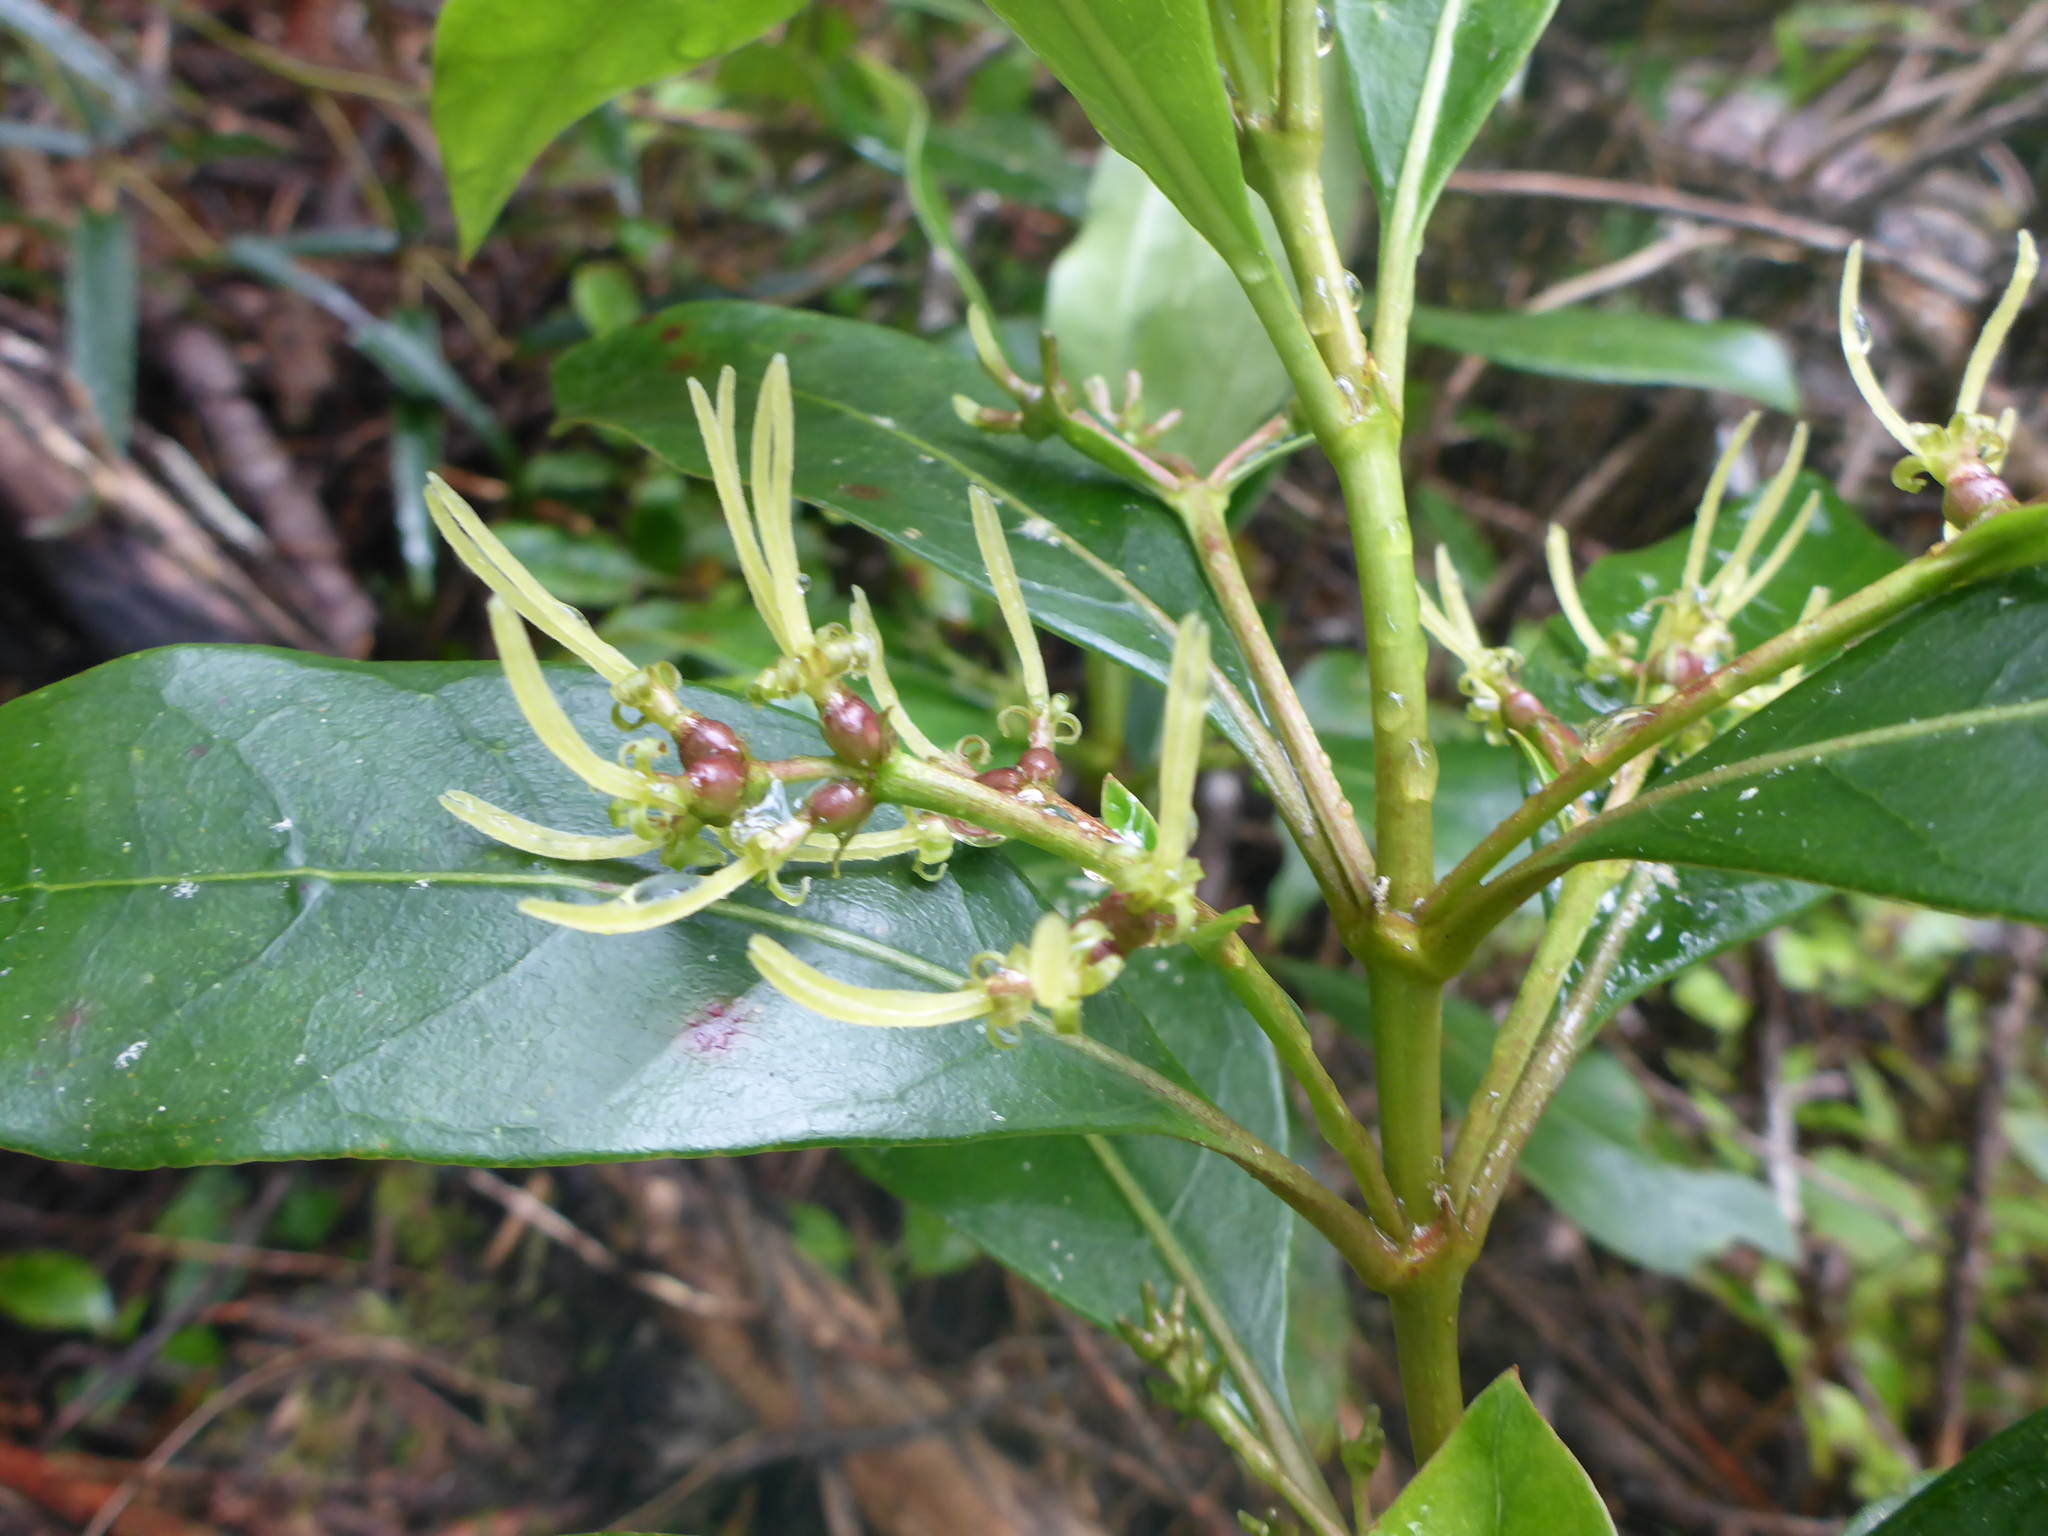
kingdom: Plantae
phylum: Tracheophyta
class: Magnoliopsida
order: Gentianales
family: Rubiaceae
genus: Coprosma
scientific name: Coprosma lucida
